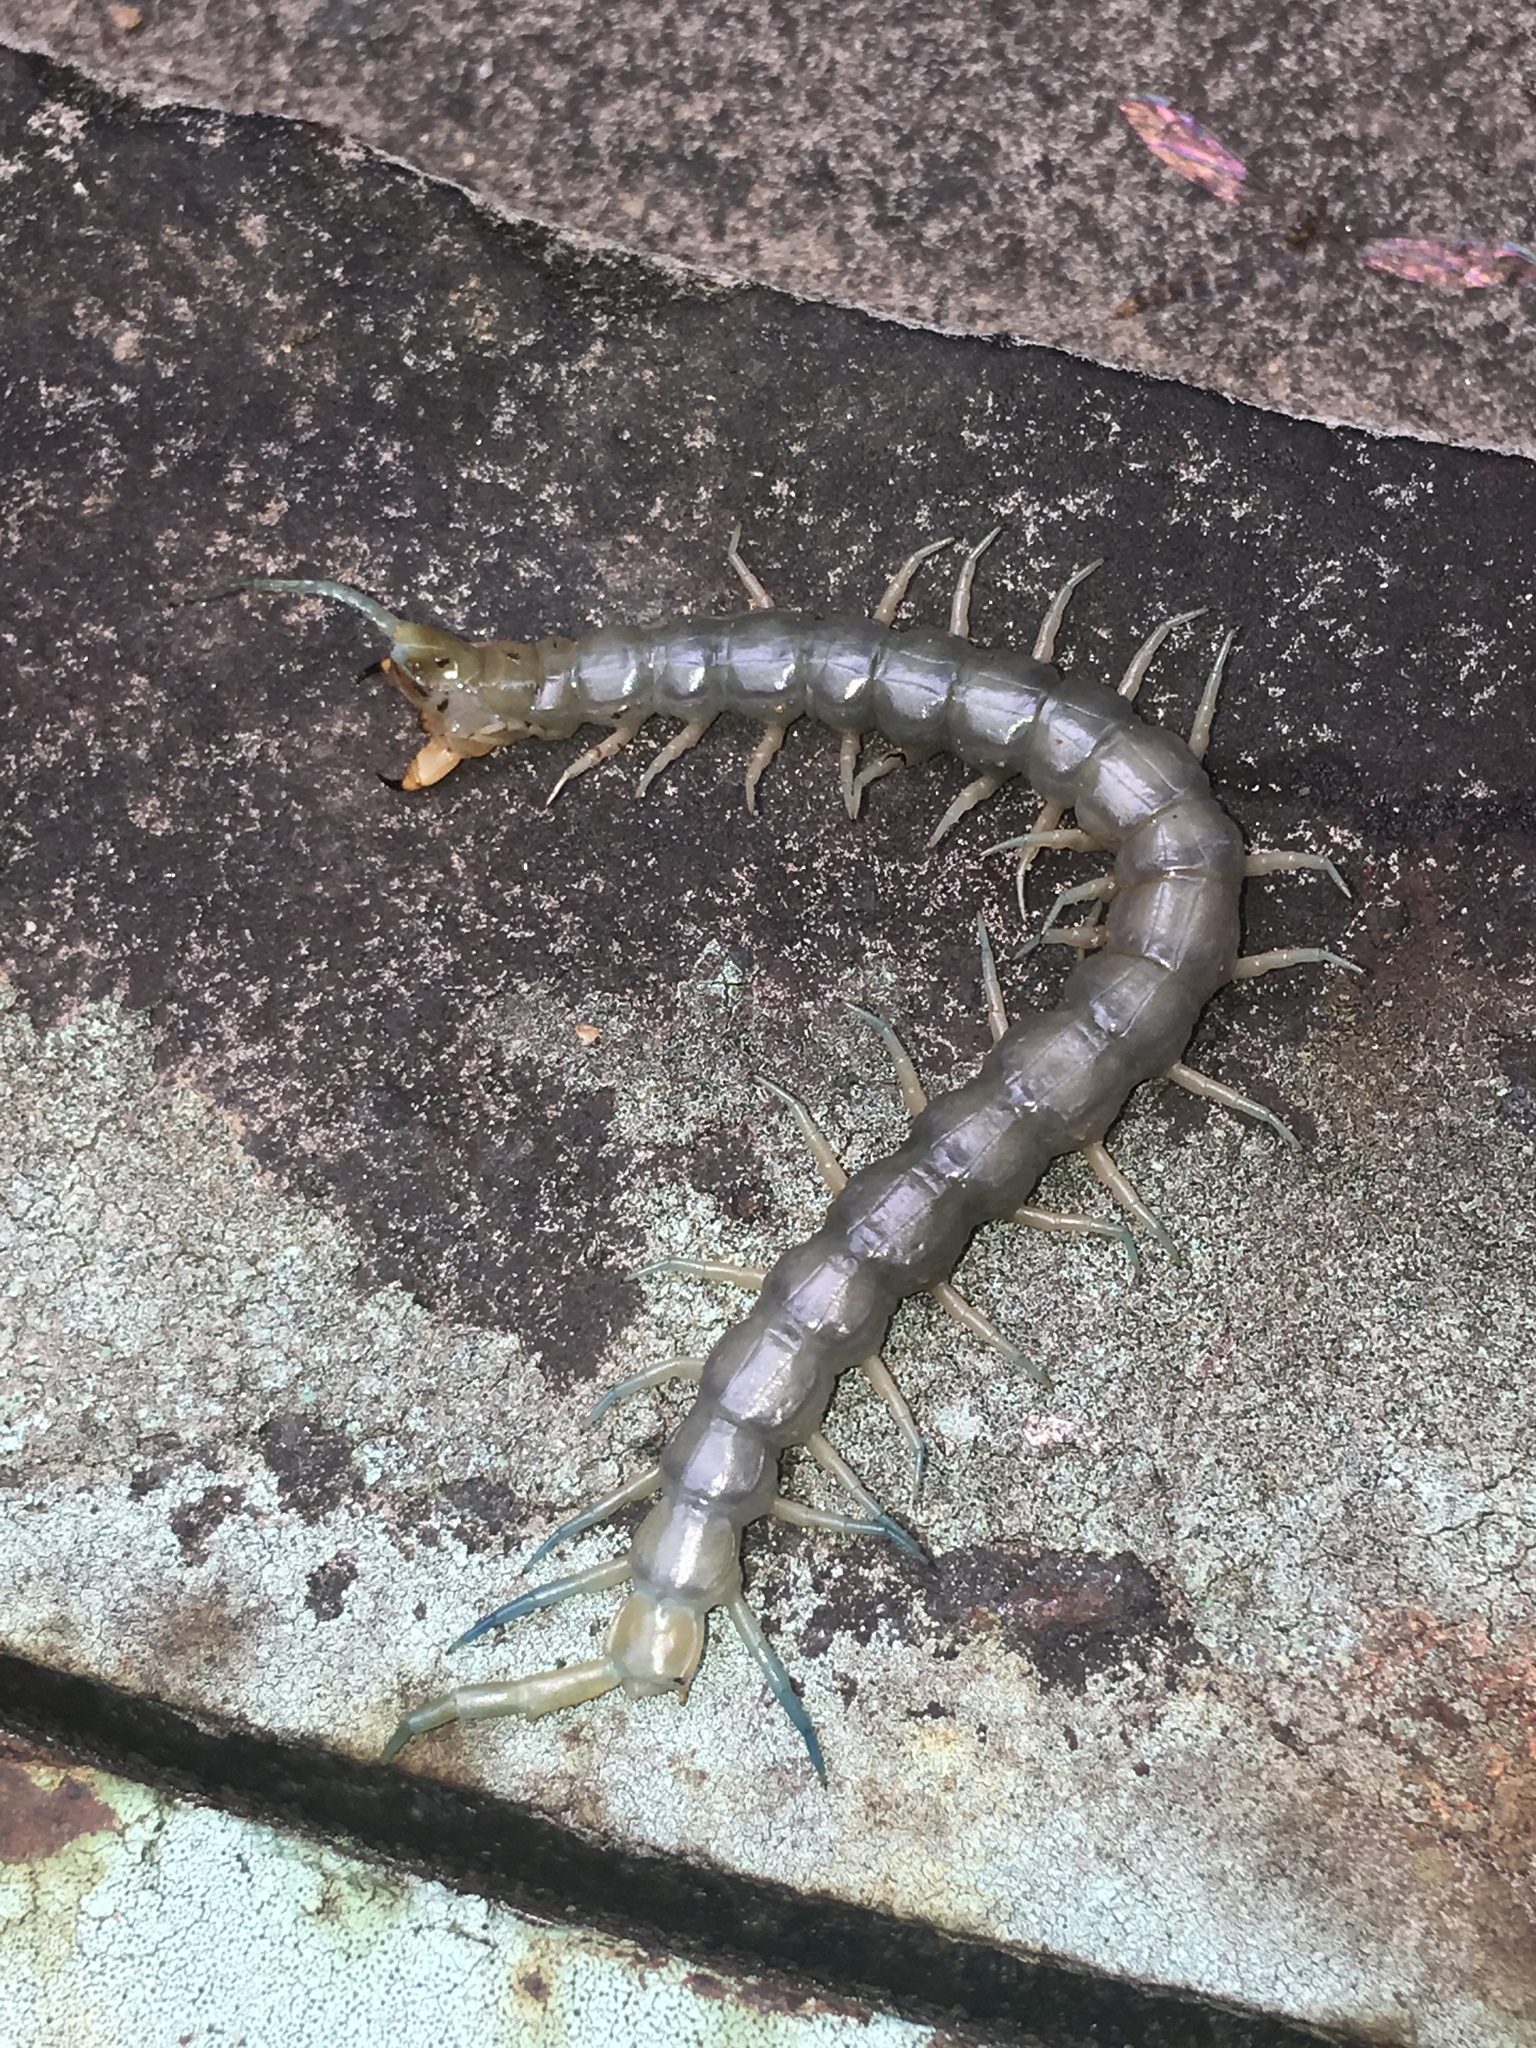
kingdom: Animalia
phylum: Arthropoda
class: Chilopoda
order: Scolopendromorpha
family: Scolopendridae
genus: Hemiscolopendra
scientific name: Hemiscolopendra marginata
